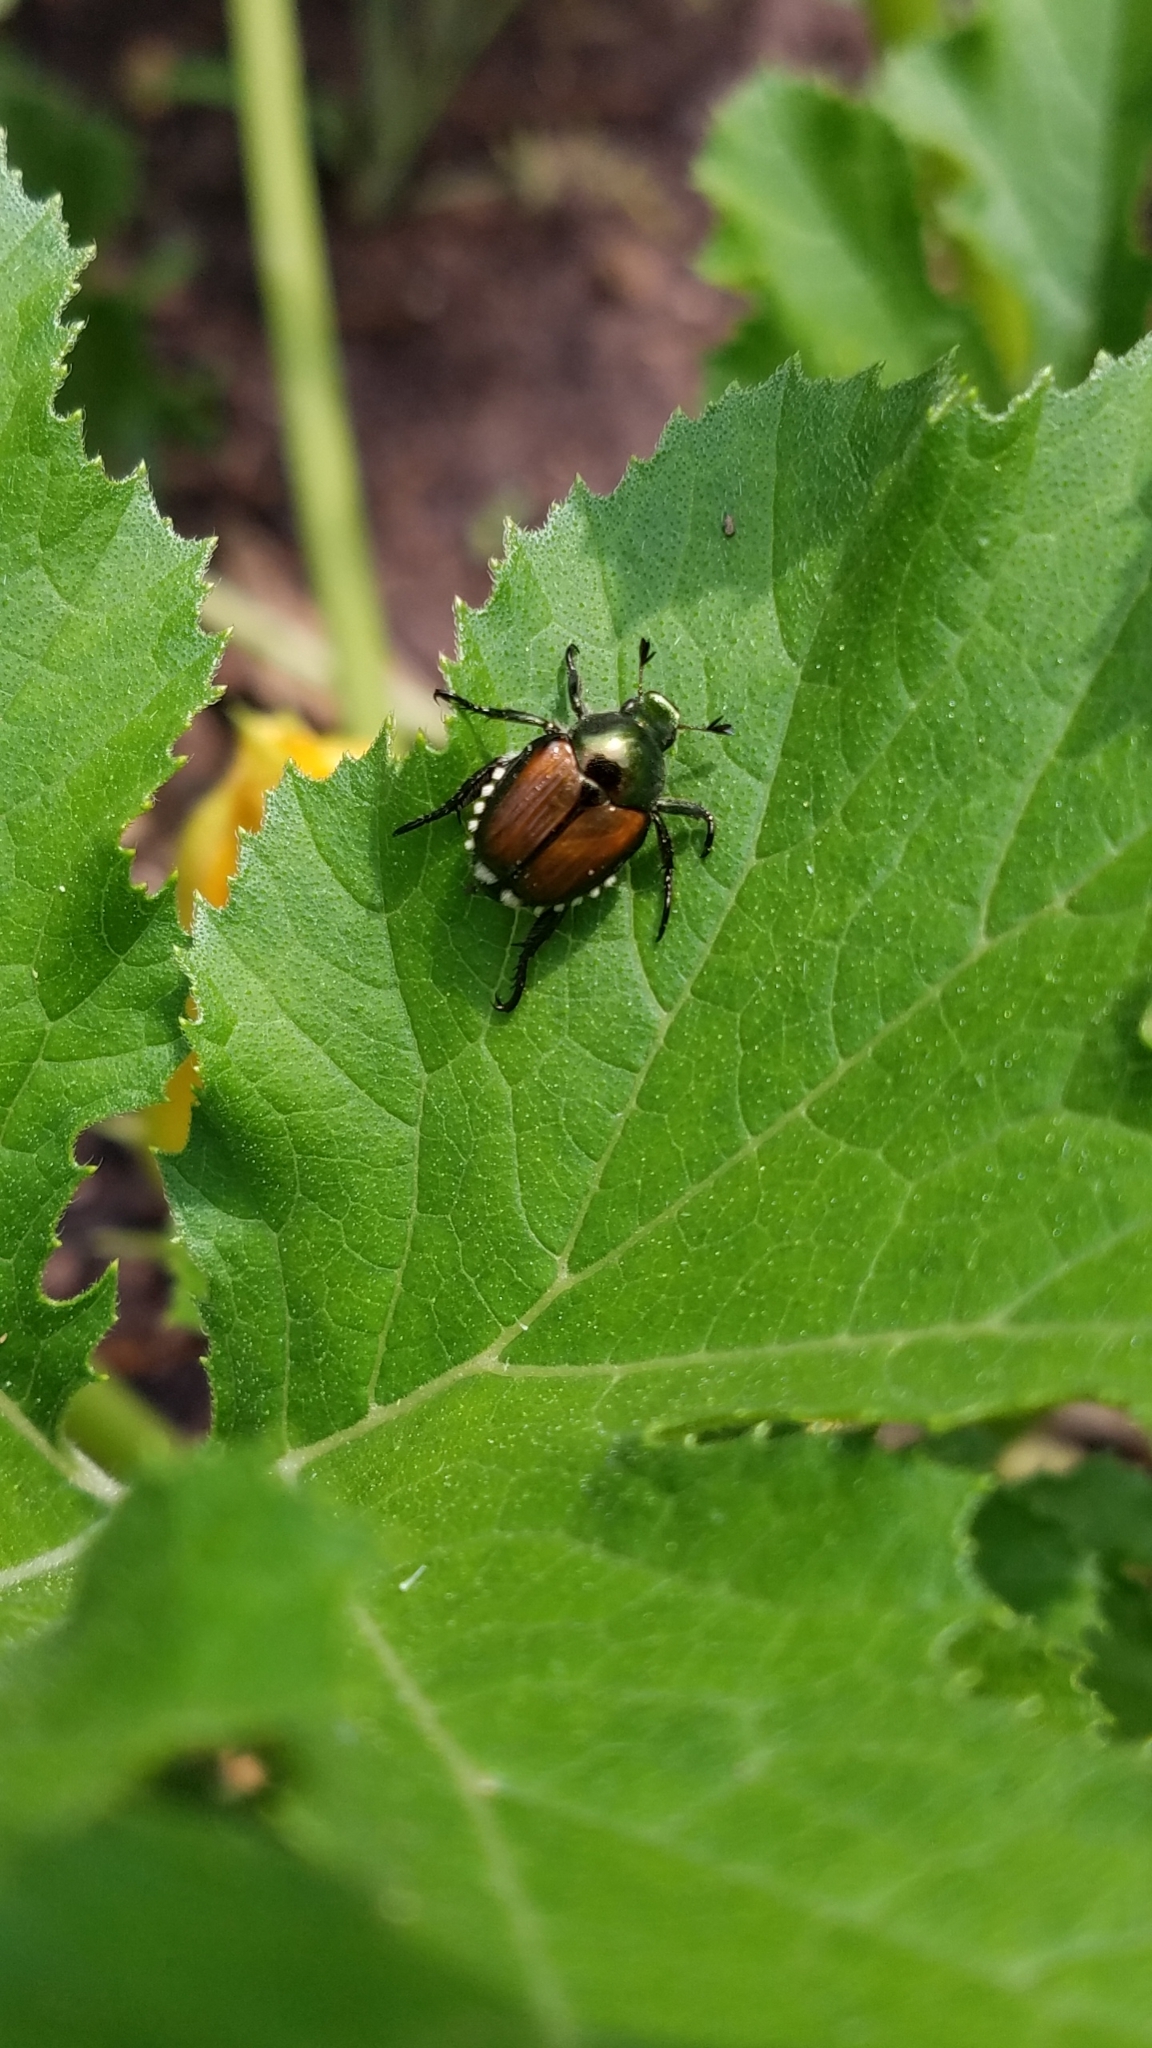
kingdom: Animalia
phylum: Arthropoda
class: Insecta
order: Coleoptera
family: Scarabaeidae
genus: Popillia
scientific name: Popillia japonica
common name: Japanese beetle
